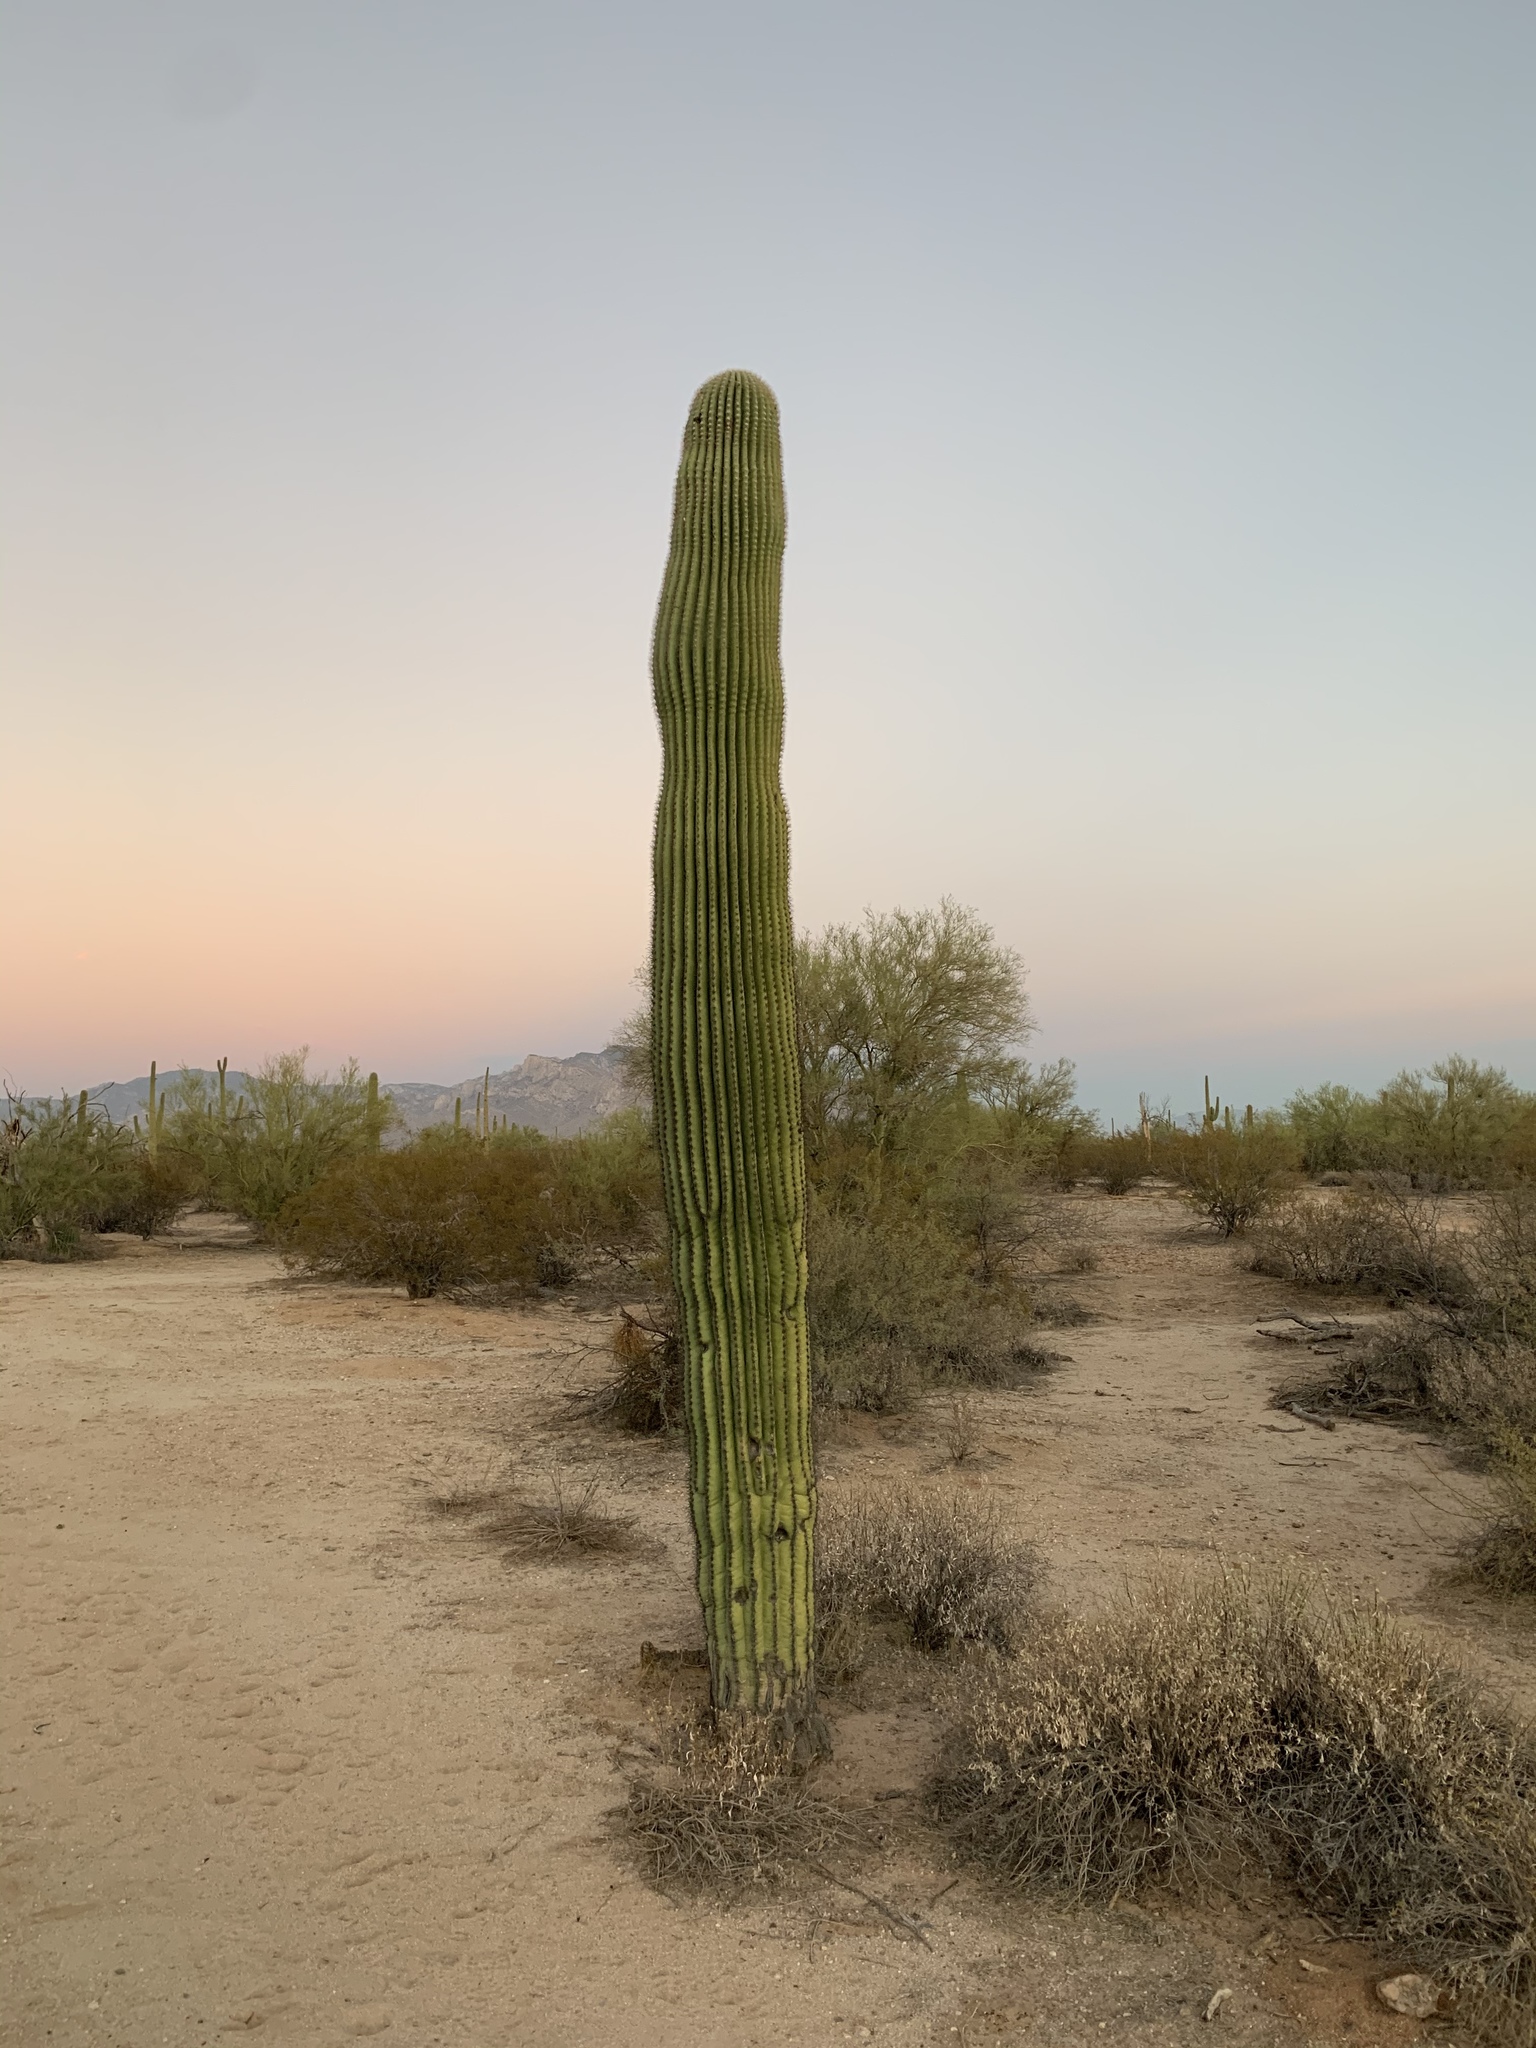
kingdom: Plantae
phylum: Tracheophyta
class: Magnoliopsida
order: Caryophyllales
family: Cactaceae
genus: Carnegiea
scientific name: Carnegiea gigantea
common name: Saguaro
